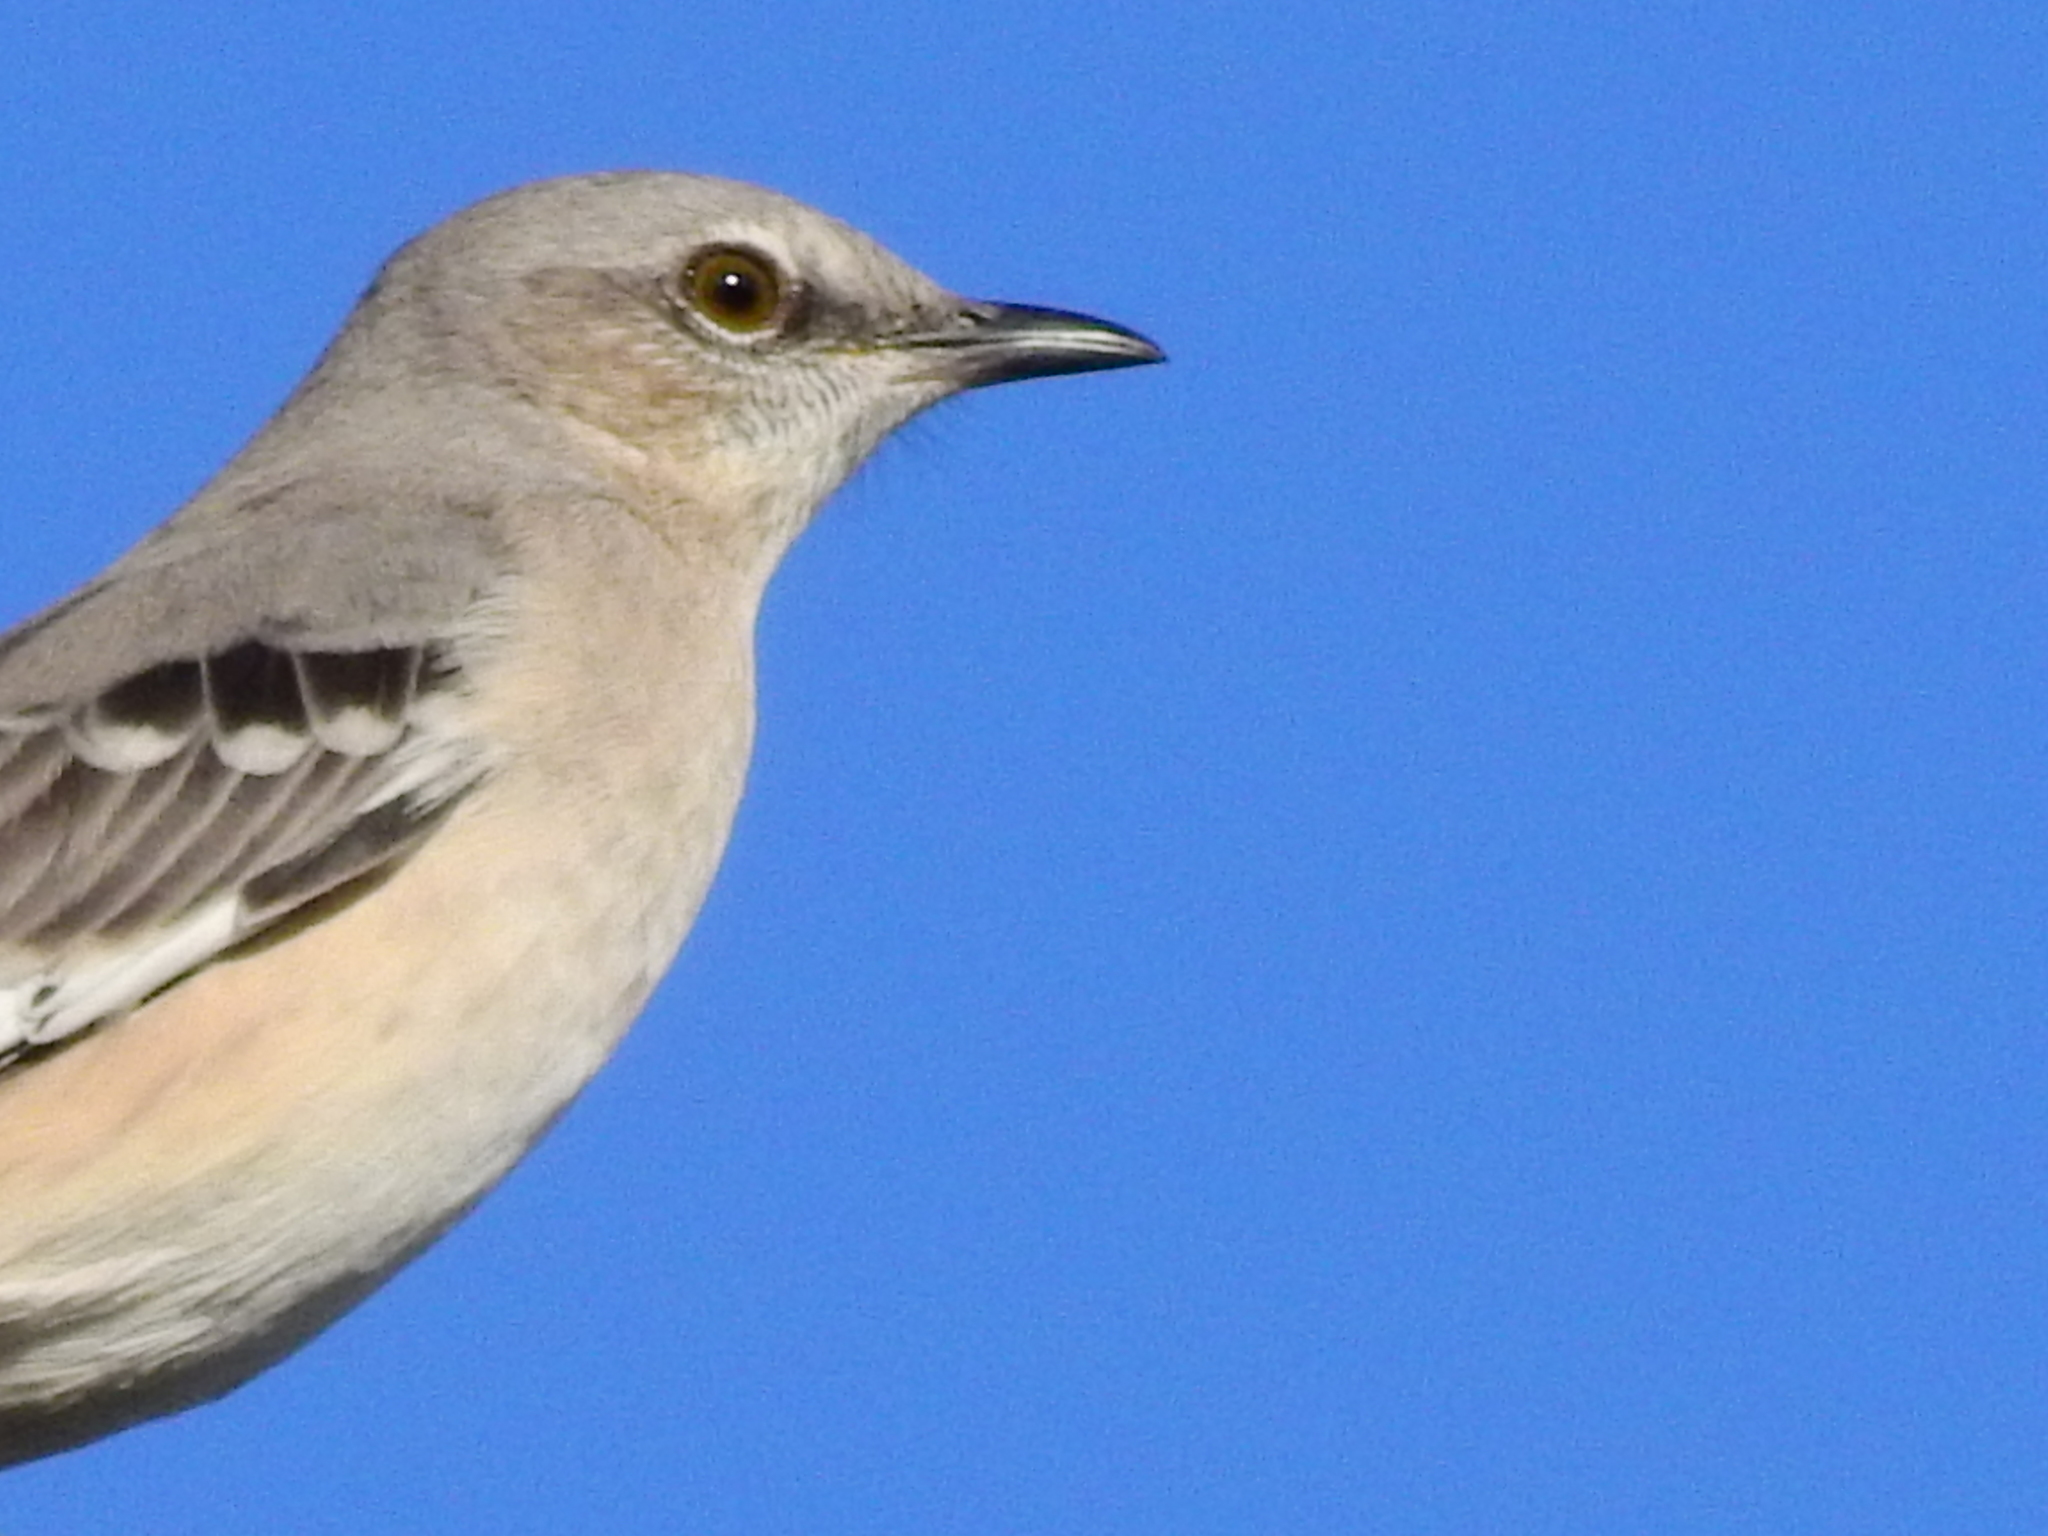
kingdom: Animalia
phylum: Chordata
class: Aves
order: Passeriformes
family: Mimidae
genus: Mimus
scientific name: Mimus polyglottos
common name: Northern mockingbird
